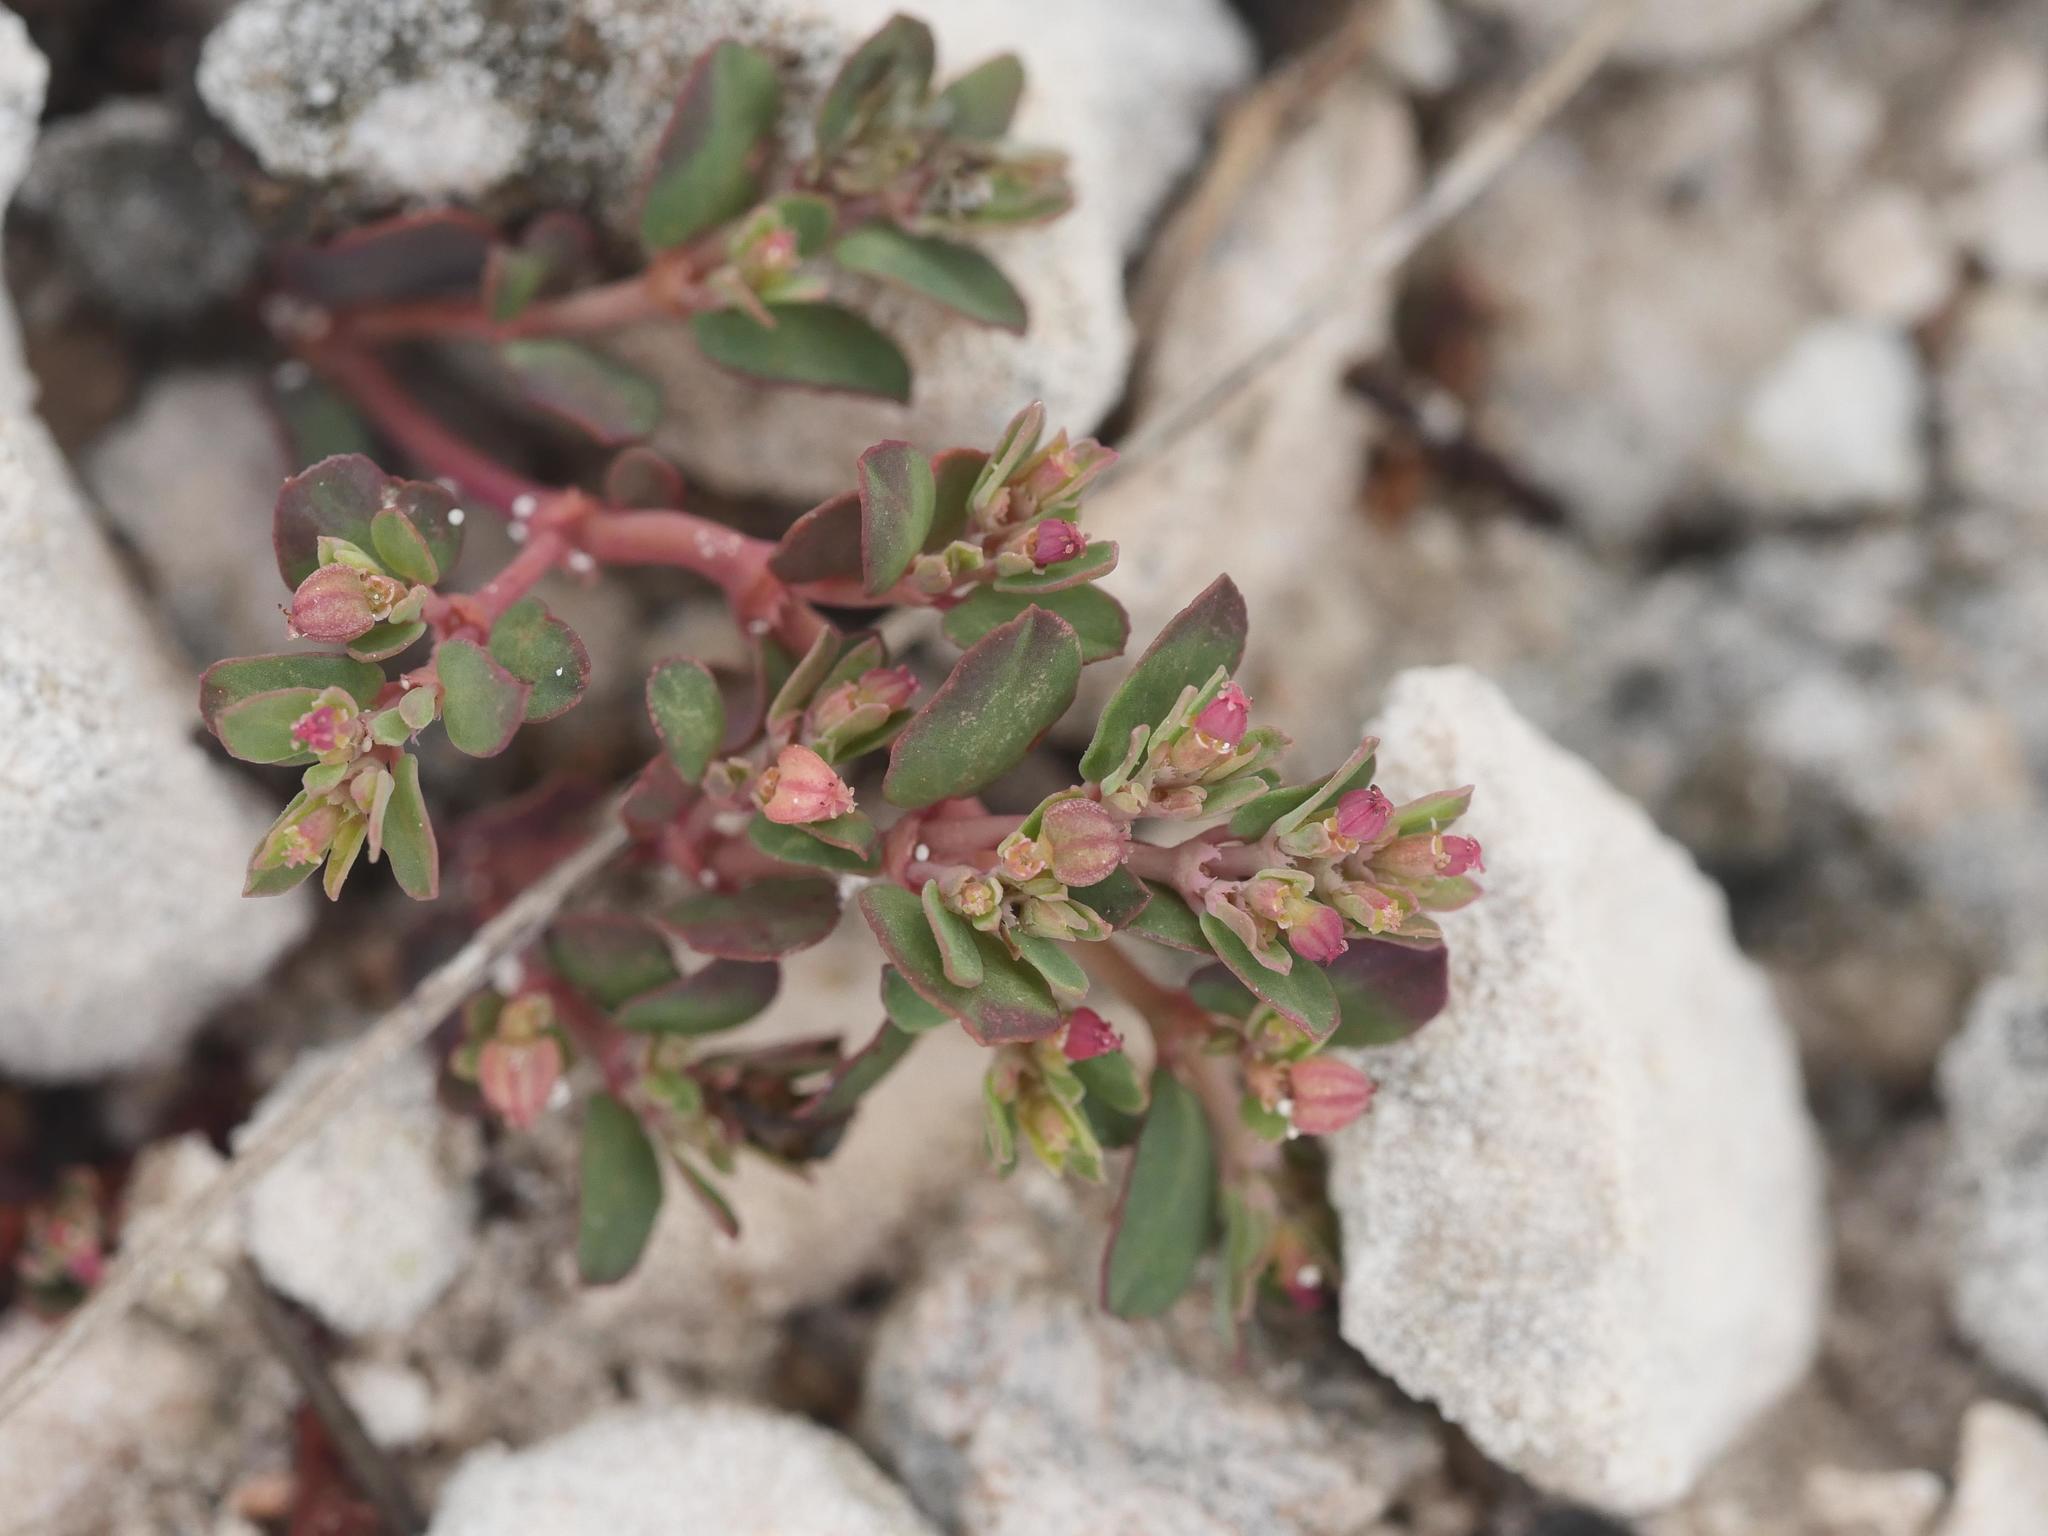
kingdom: Plantae
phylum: Tracheophyta
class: Magnoliopsida
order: Malpighiales
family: Euphorbiaceae
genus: Euphorbia
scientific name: Euphorbia blodgettii
